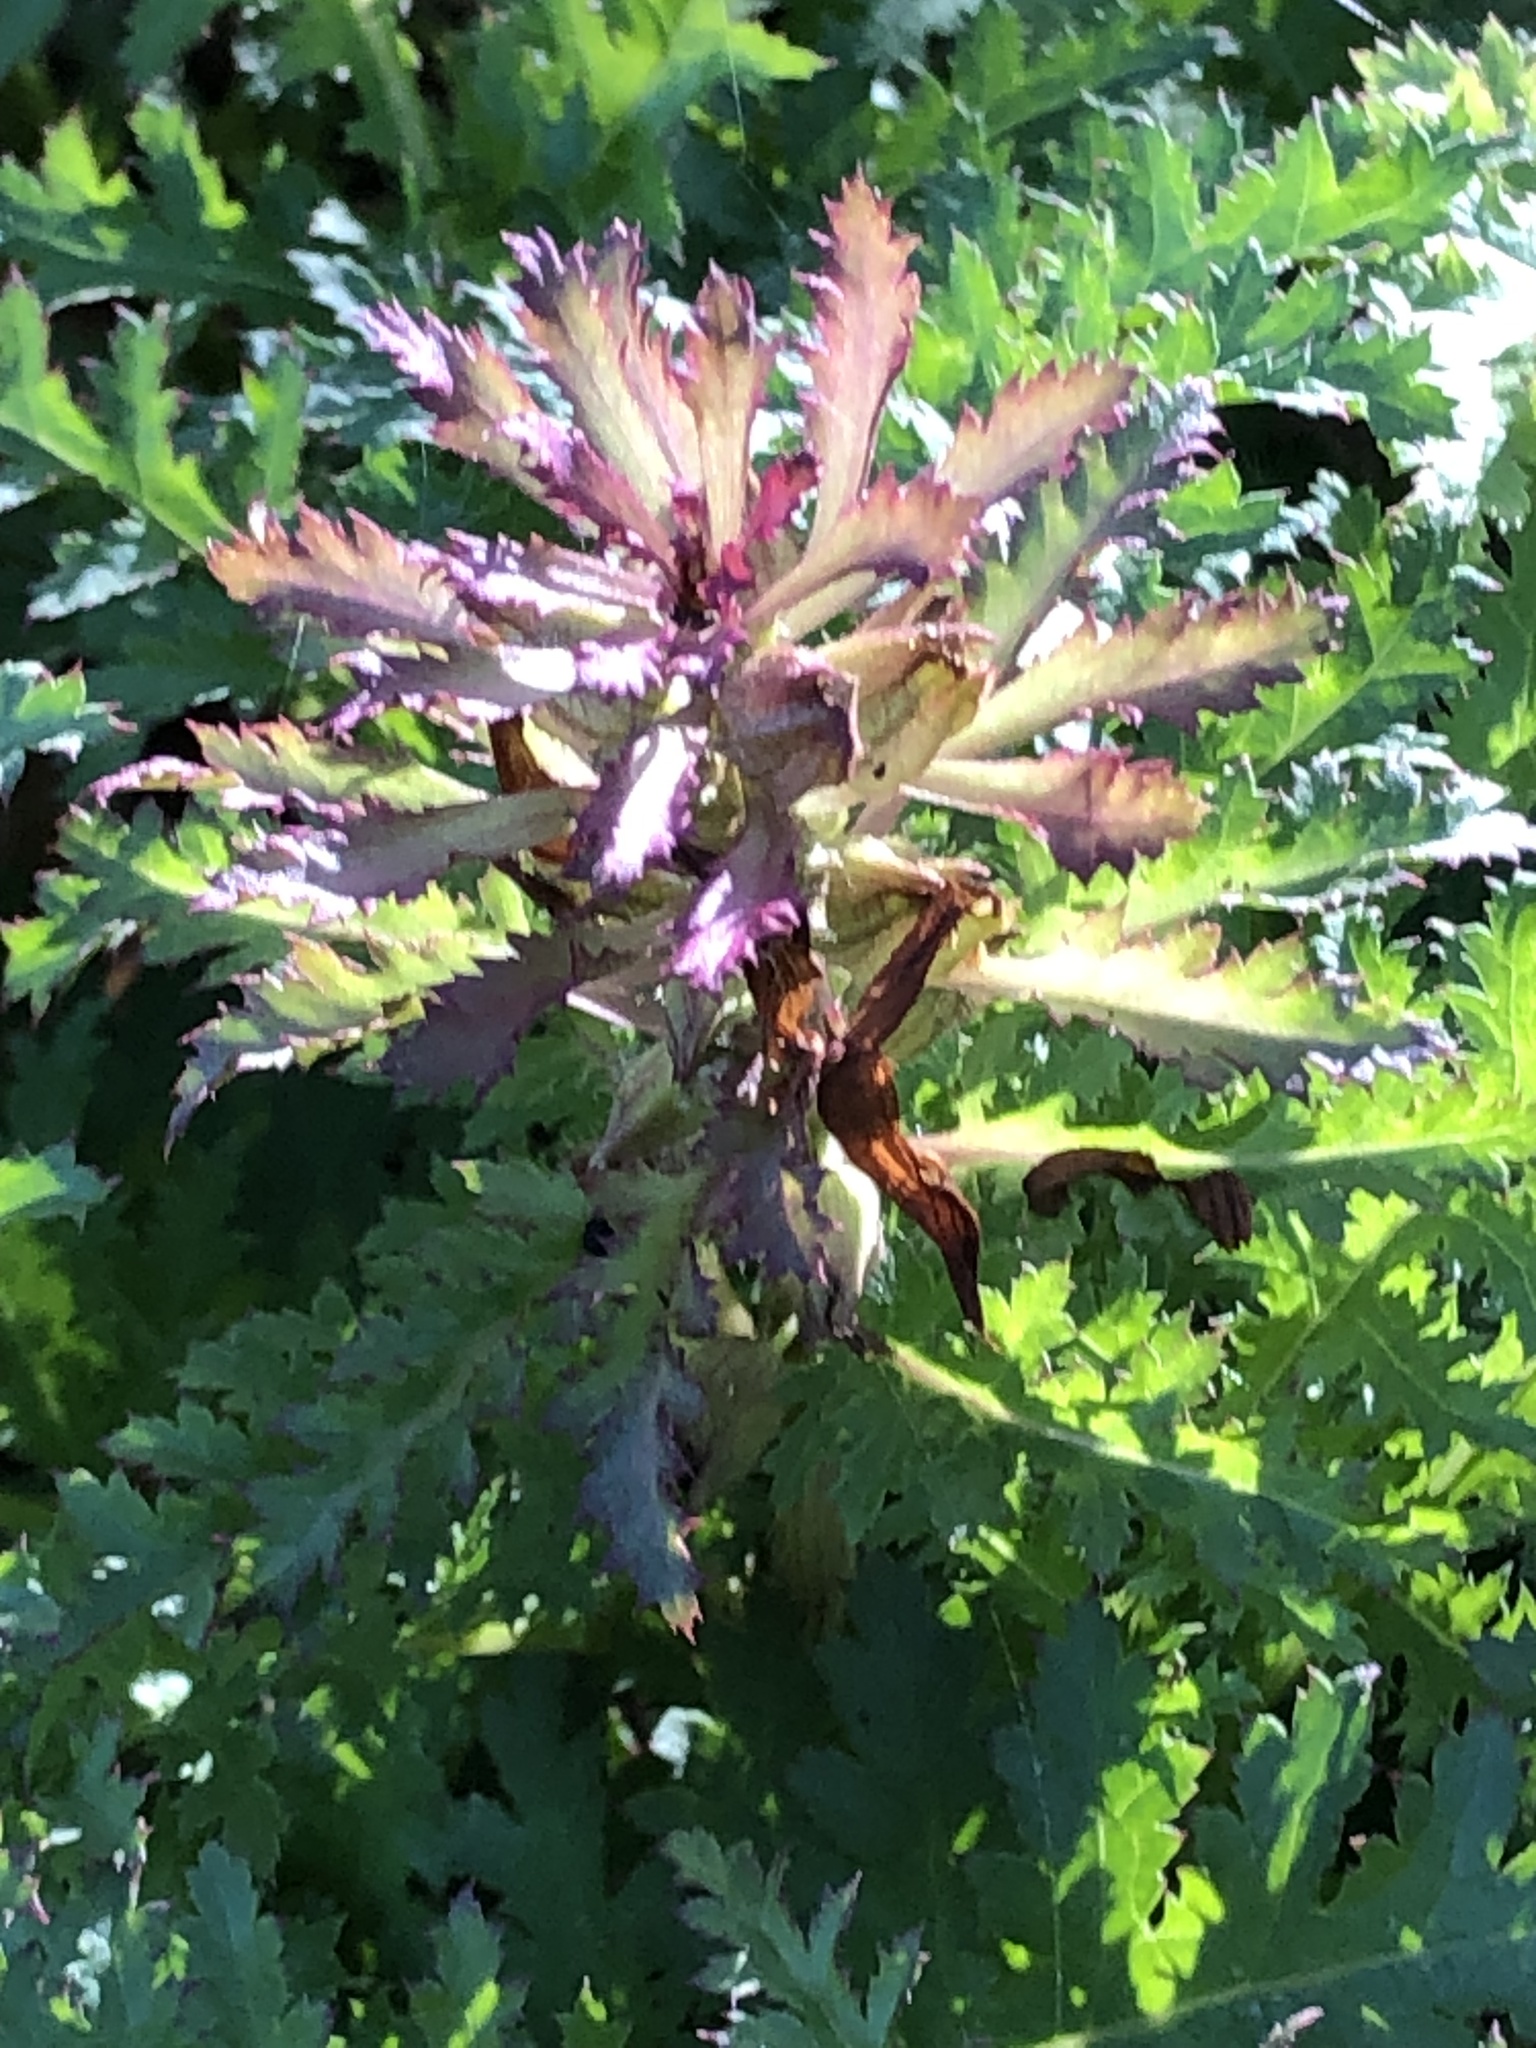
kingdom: Plantae
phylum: Tracheophyta
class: Magnoliopsida
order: Lamiales
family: Orobanchaceae
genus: Pedicularis
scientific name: Pedicularis densiflora
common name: Indian warrior
